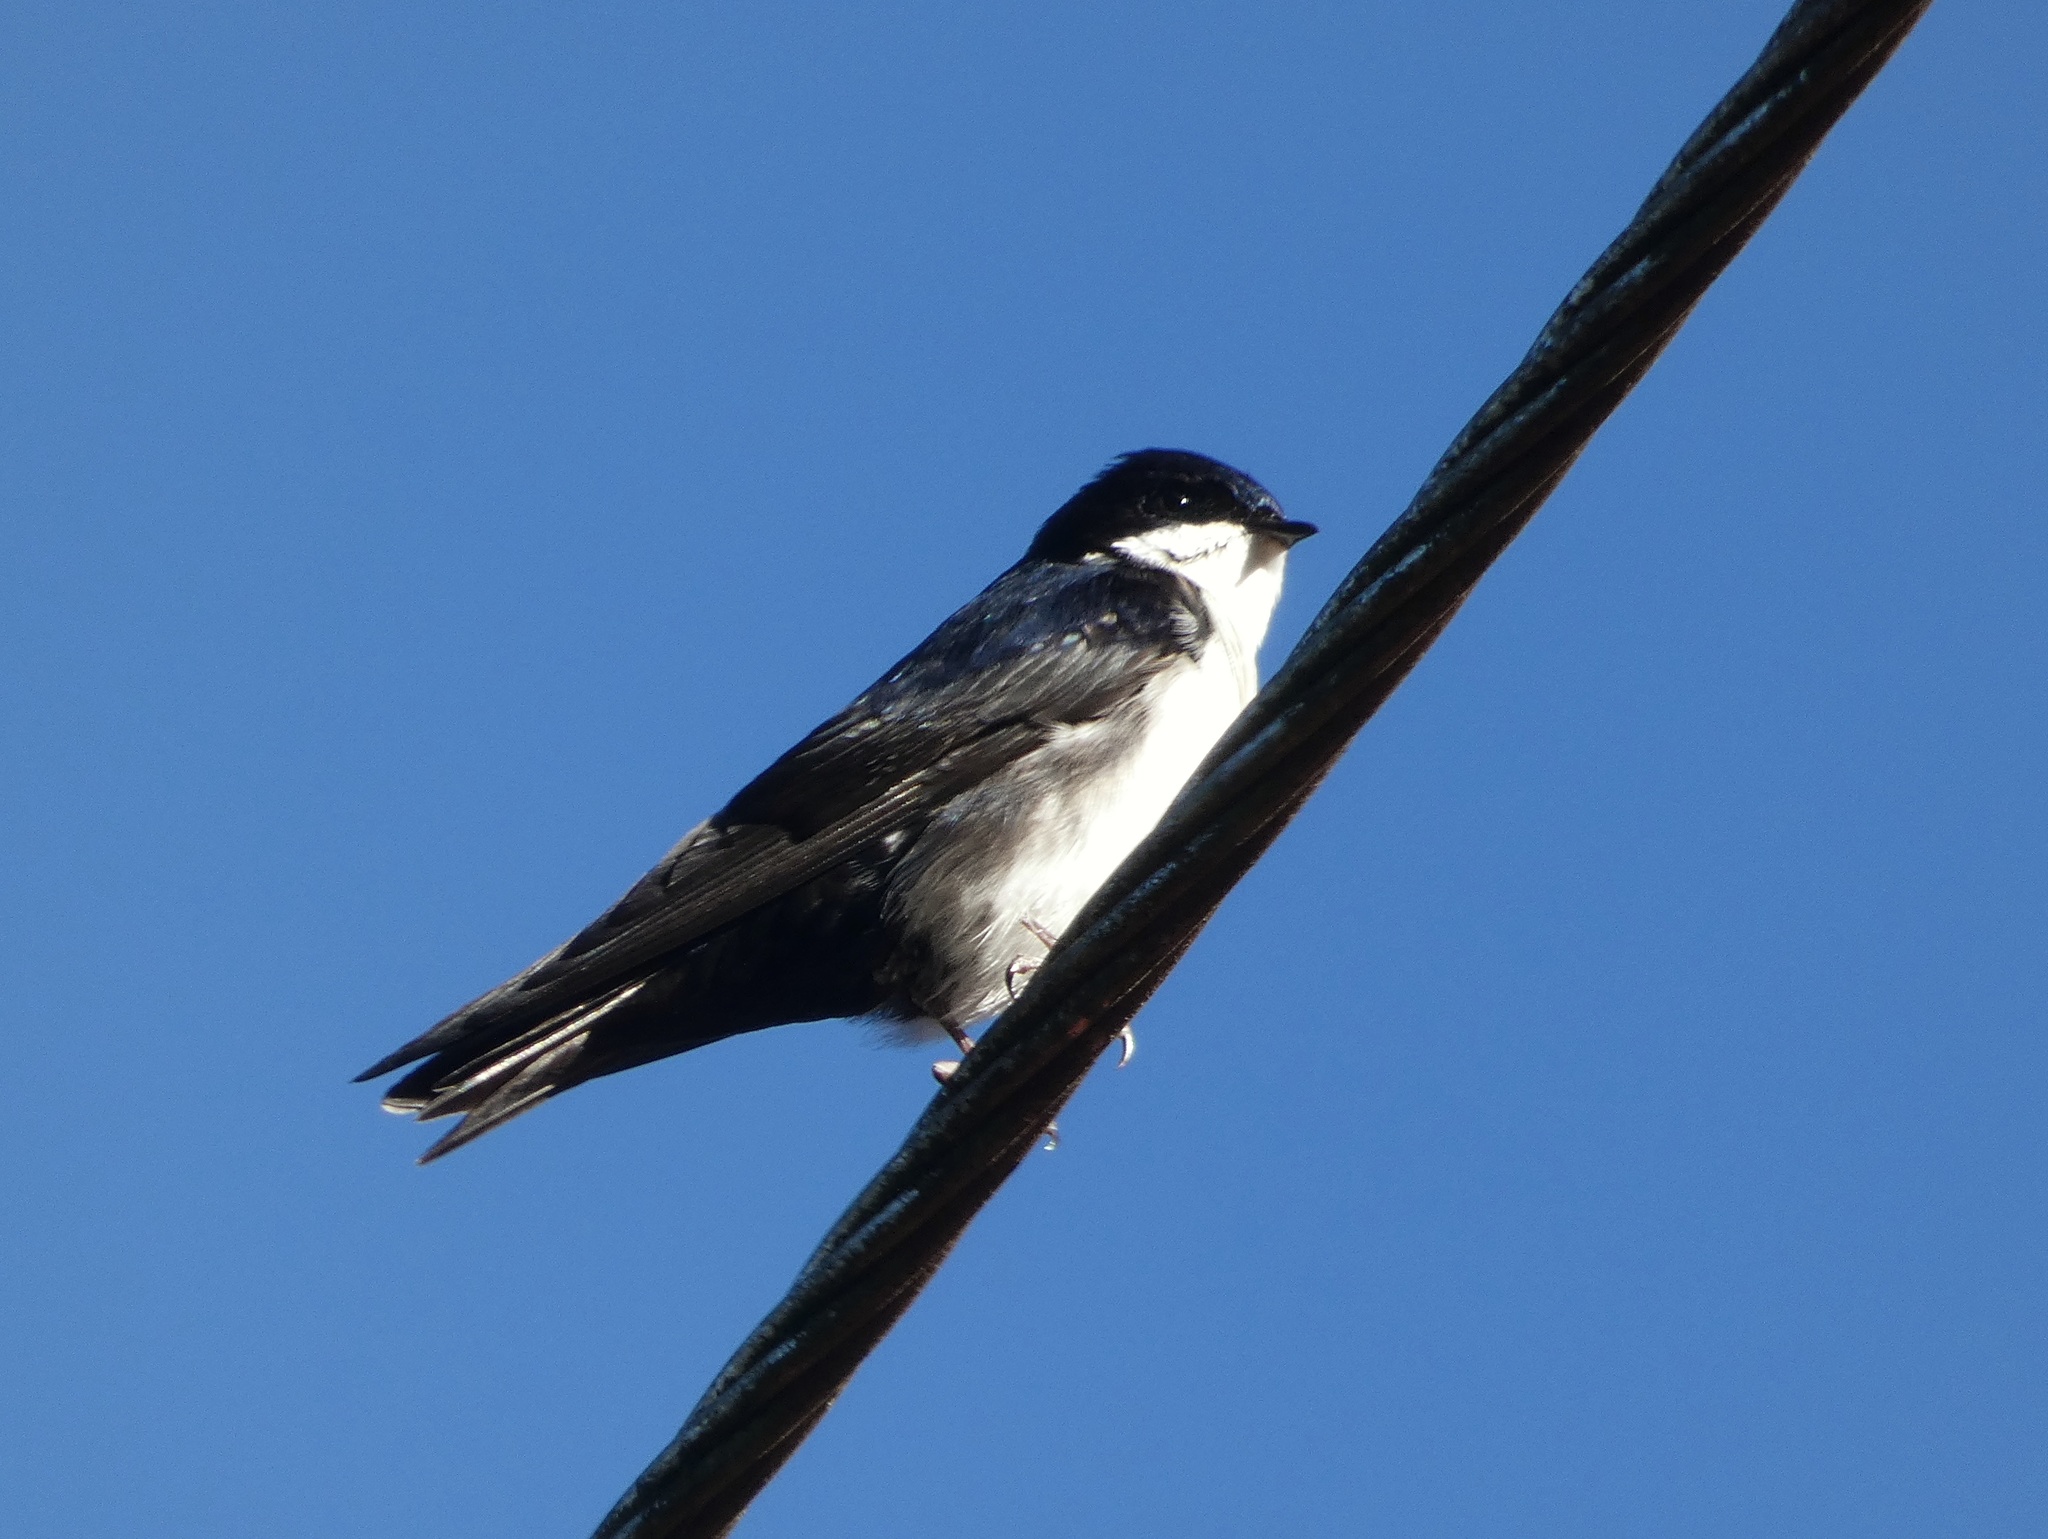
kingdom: Animalia
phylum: Chordata
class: Aves
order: Passeriformes
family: Hirundinidae
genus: Notiochelidon
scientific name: Notiochelidon cyanoleuca
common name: Blue-and-white swallow
